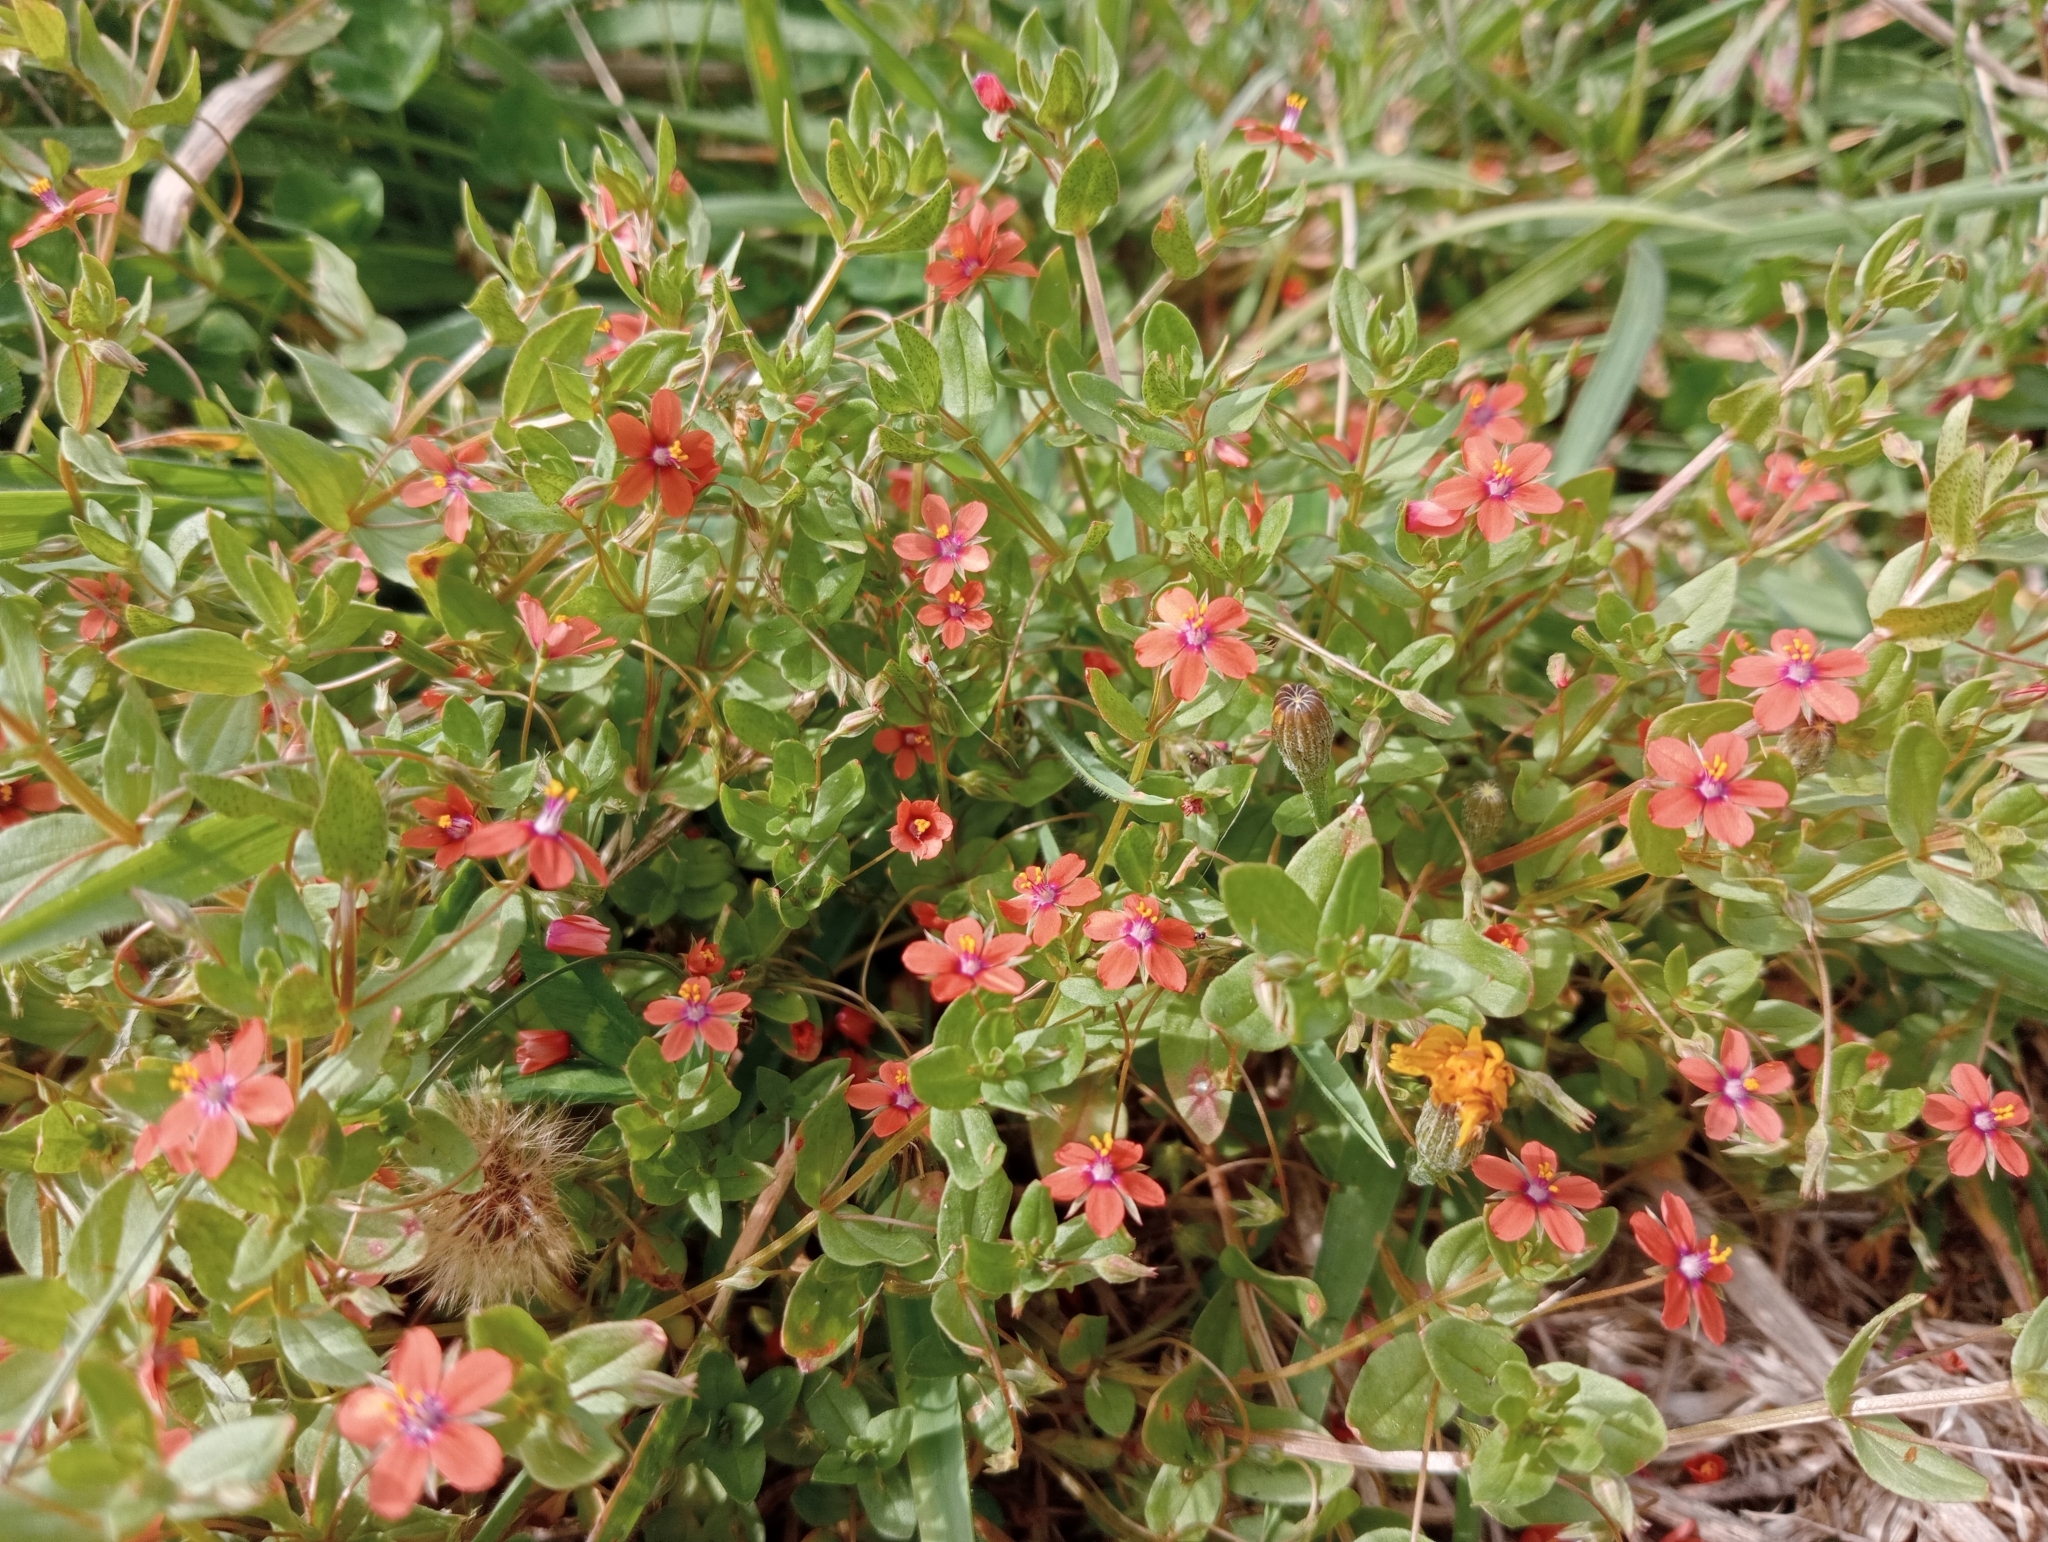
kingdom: Plantae
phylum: Tracheophyta
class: Magnoliopsida
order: Ericales
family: Primulaceae
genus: Lysimachia
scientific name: Lysimachia arvensis
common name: Scarlet pimpernel
